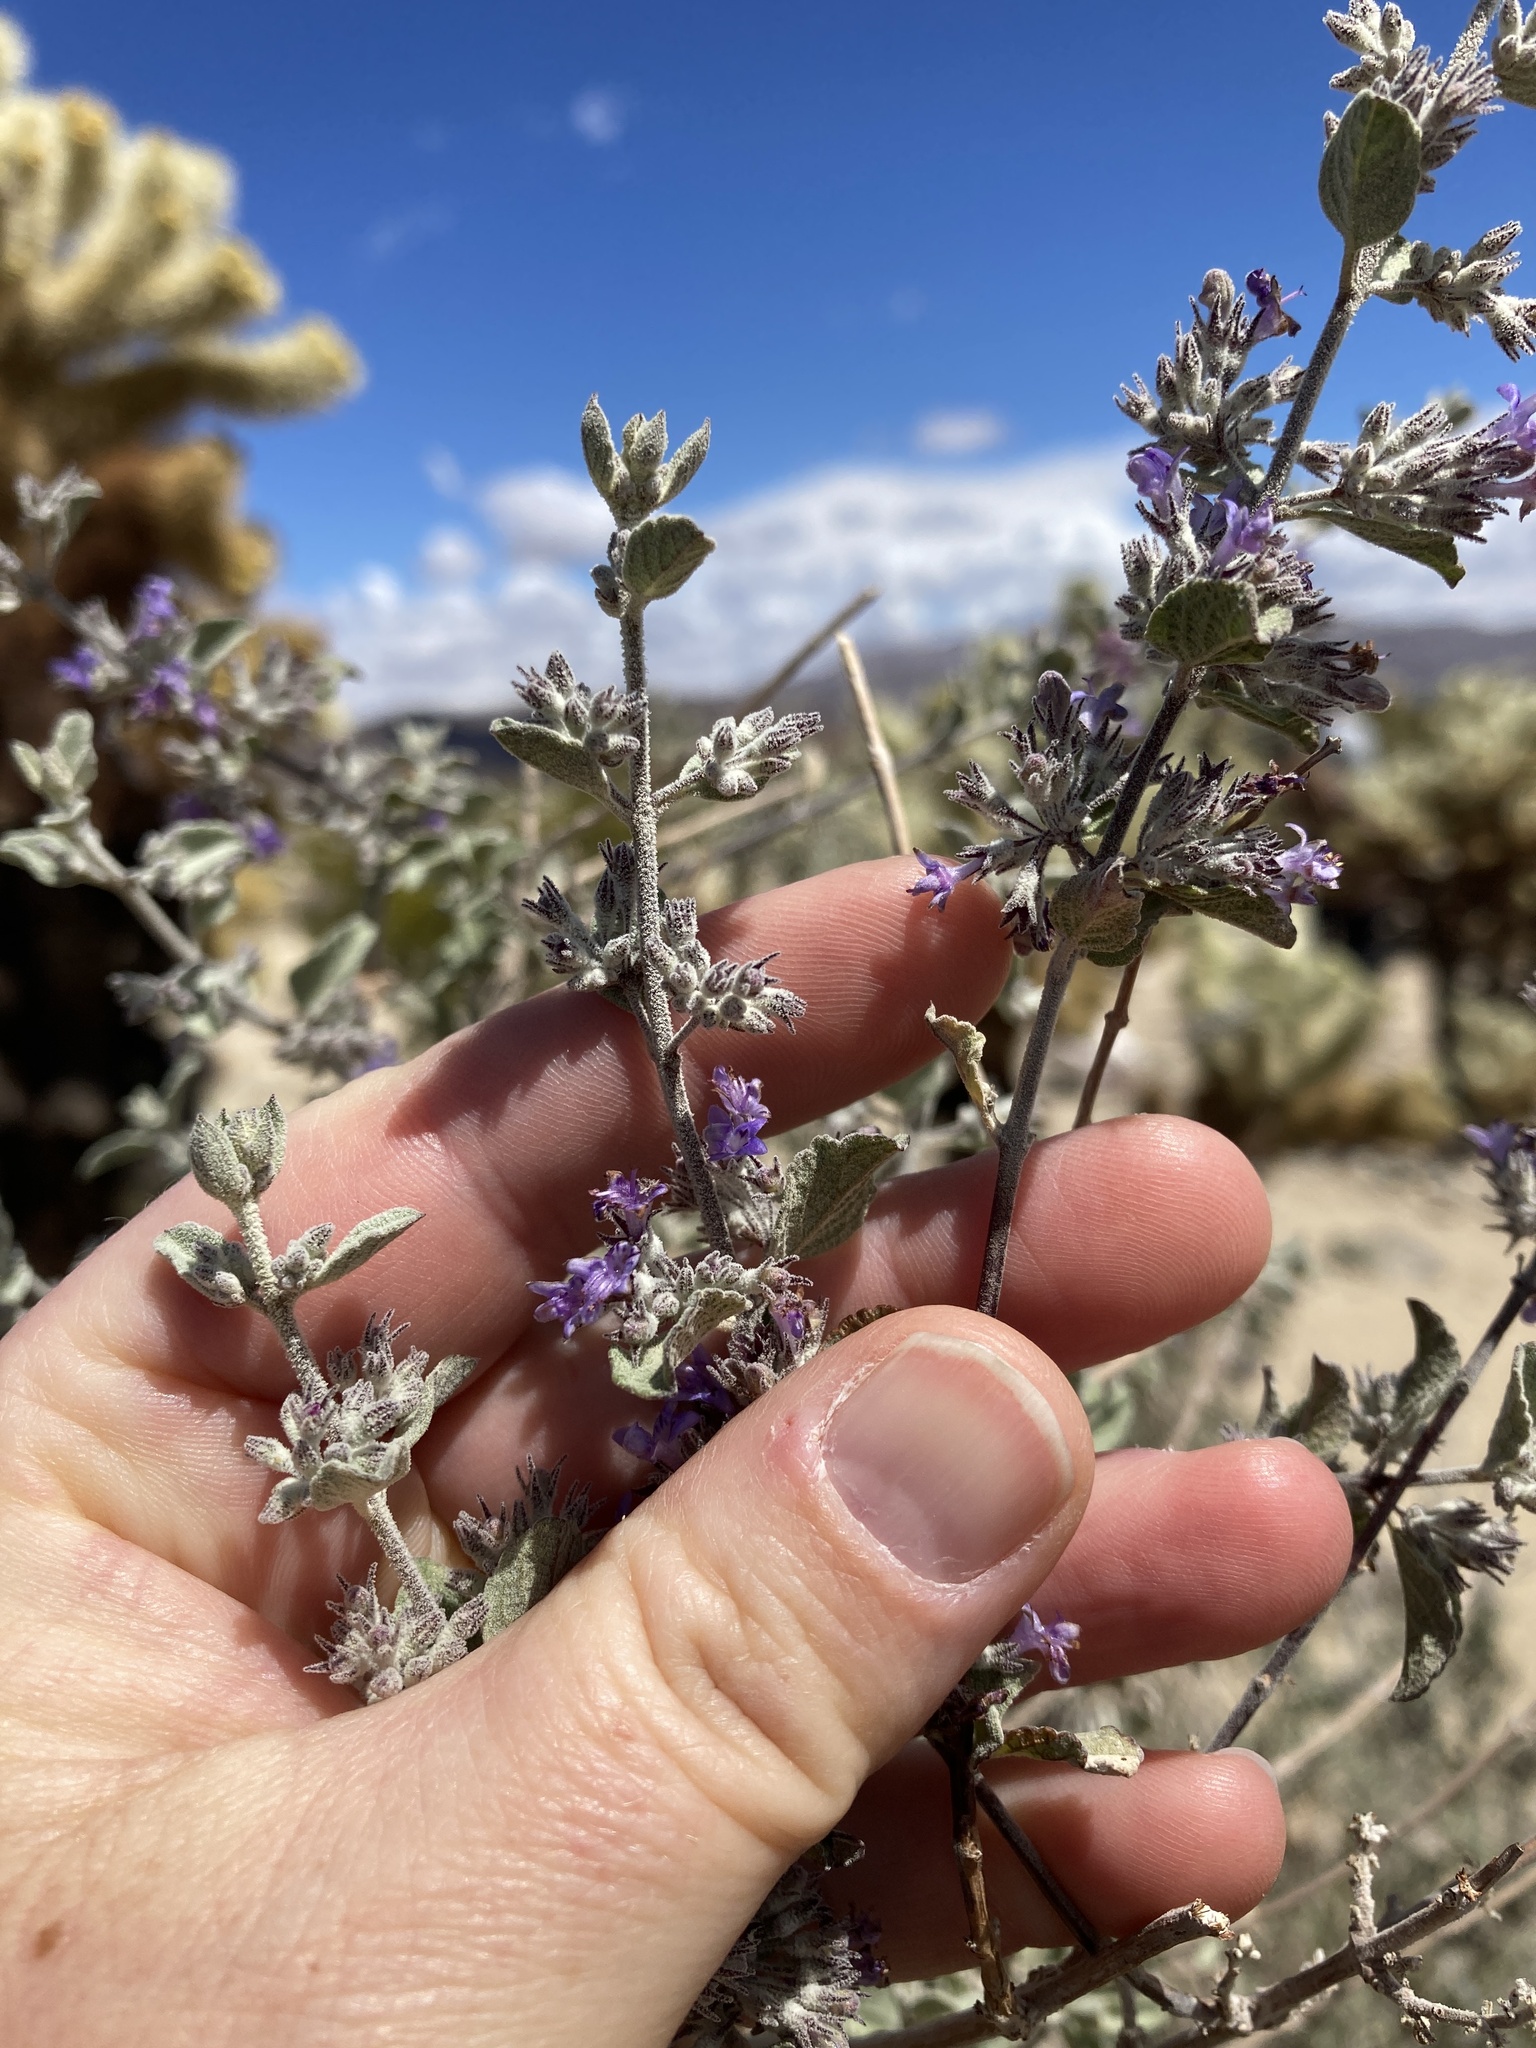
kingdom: Plantae
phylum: Tracheophyta
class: Magnoliopsida
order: Lamiales
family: Lamiaceae
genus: Condea
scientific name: Condea emoryi
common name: Chia
